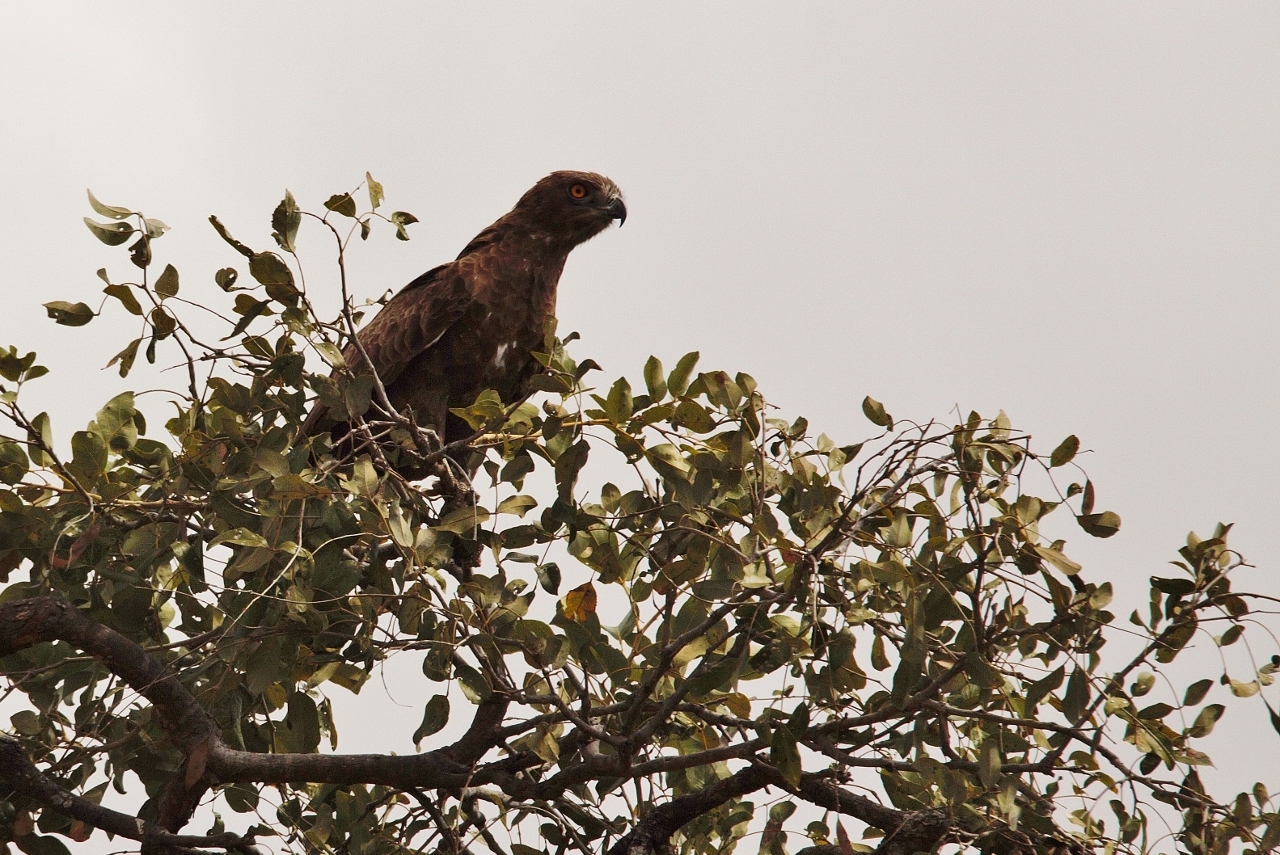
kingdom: Animalia
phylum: Chordata
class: Aves
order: Accipitriformes
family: Accipitridae
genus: Circaetus
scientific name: Circaetus cinereus
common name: Brown snake eagle
